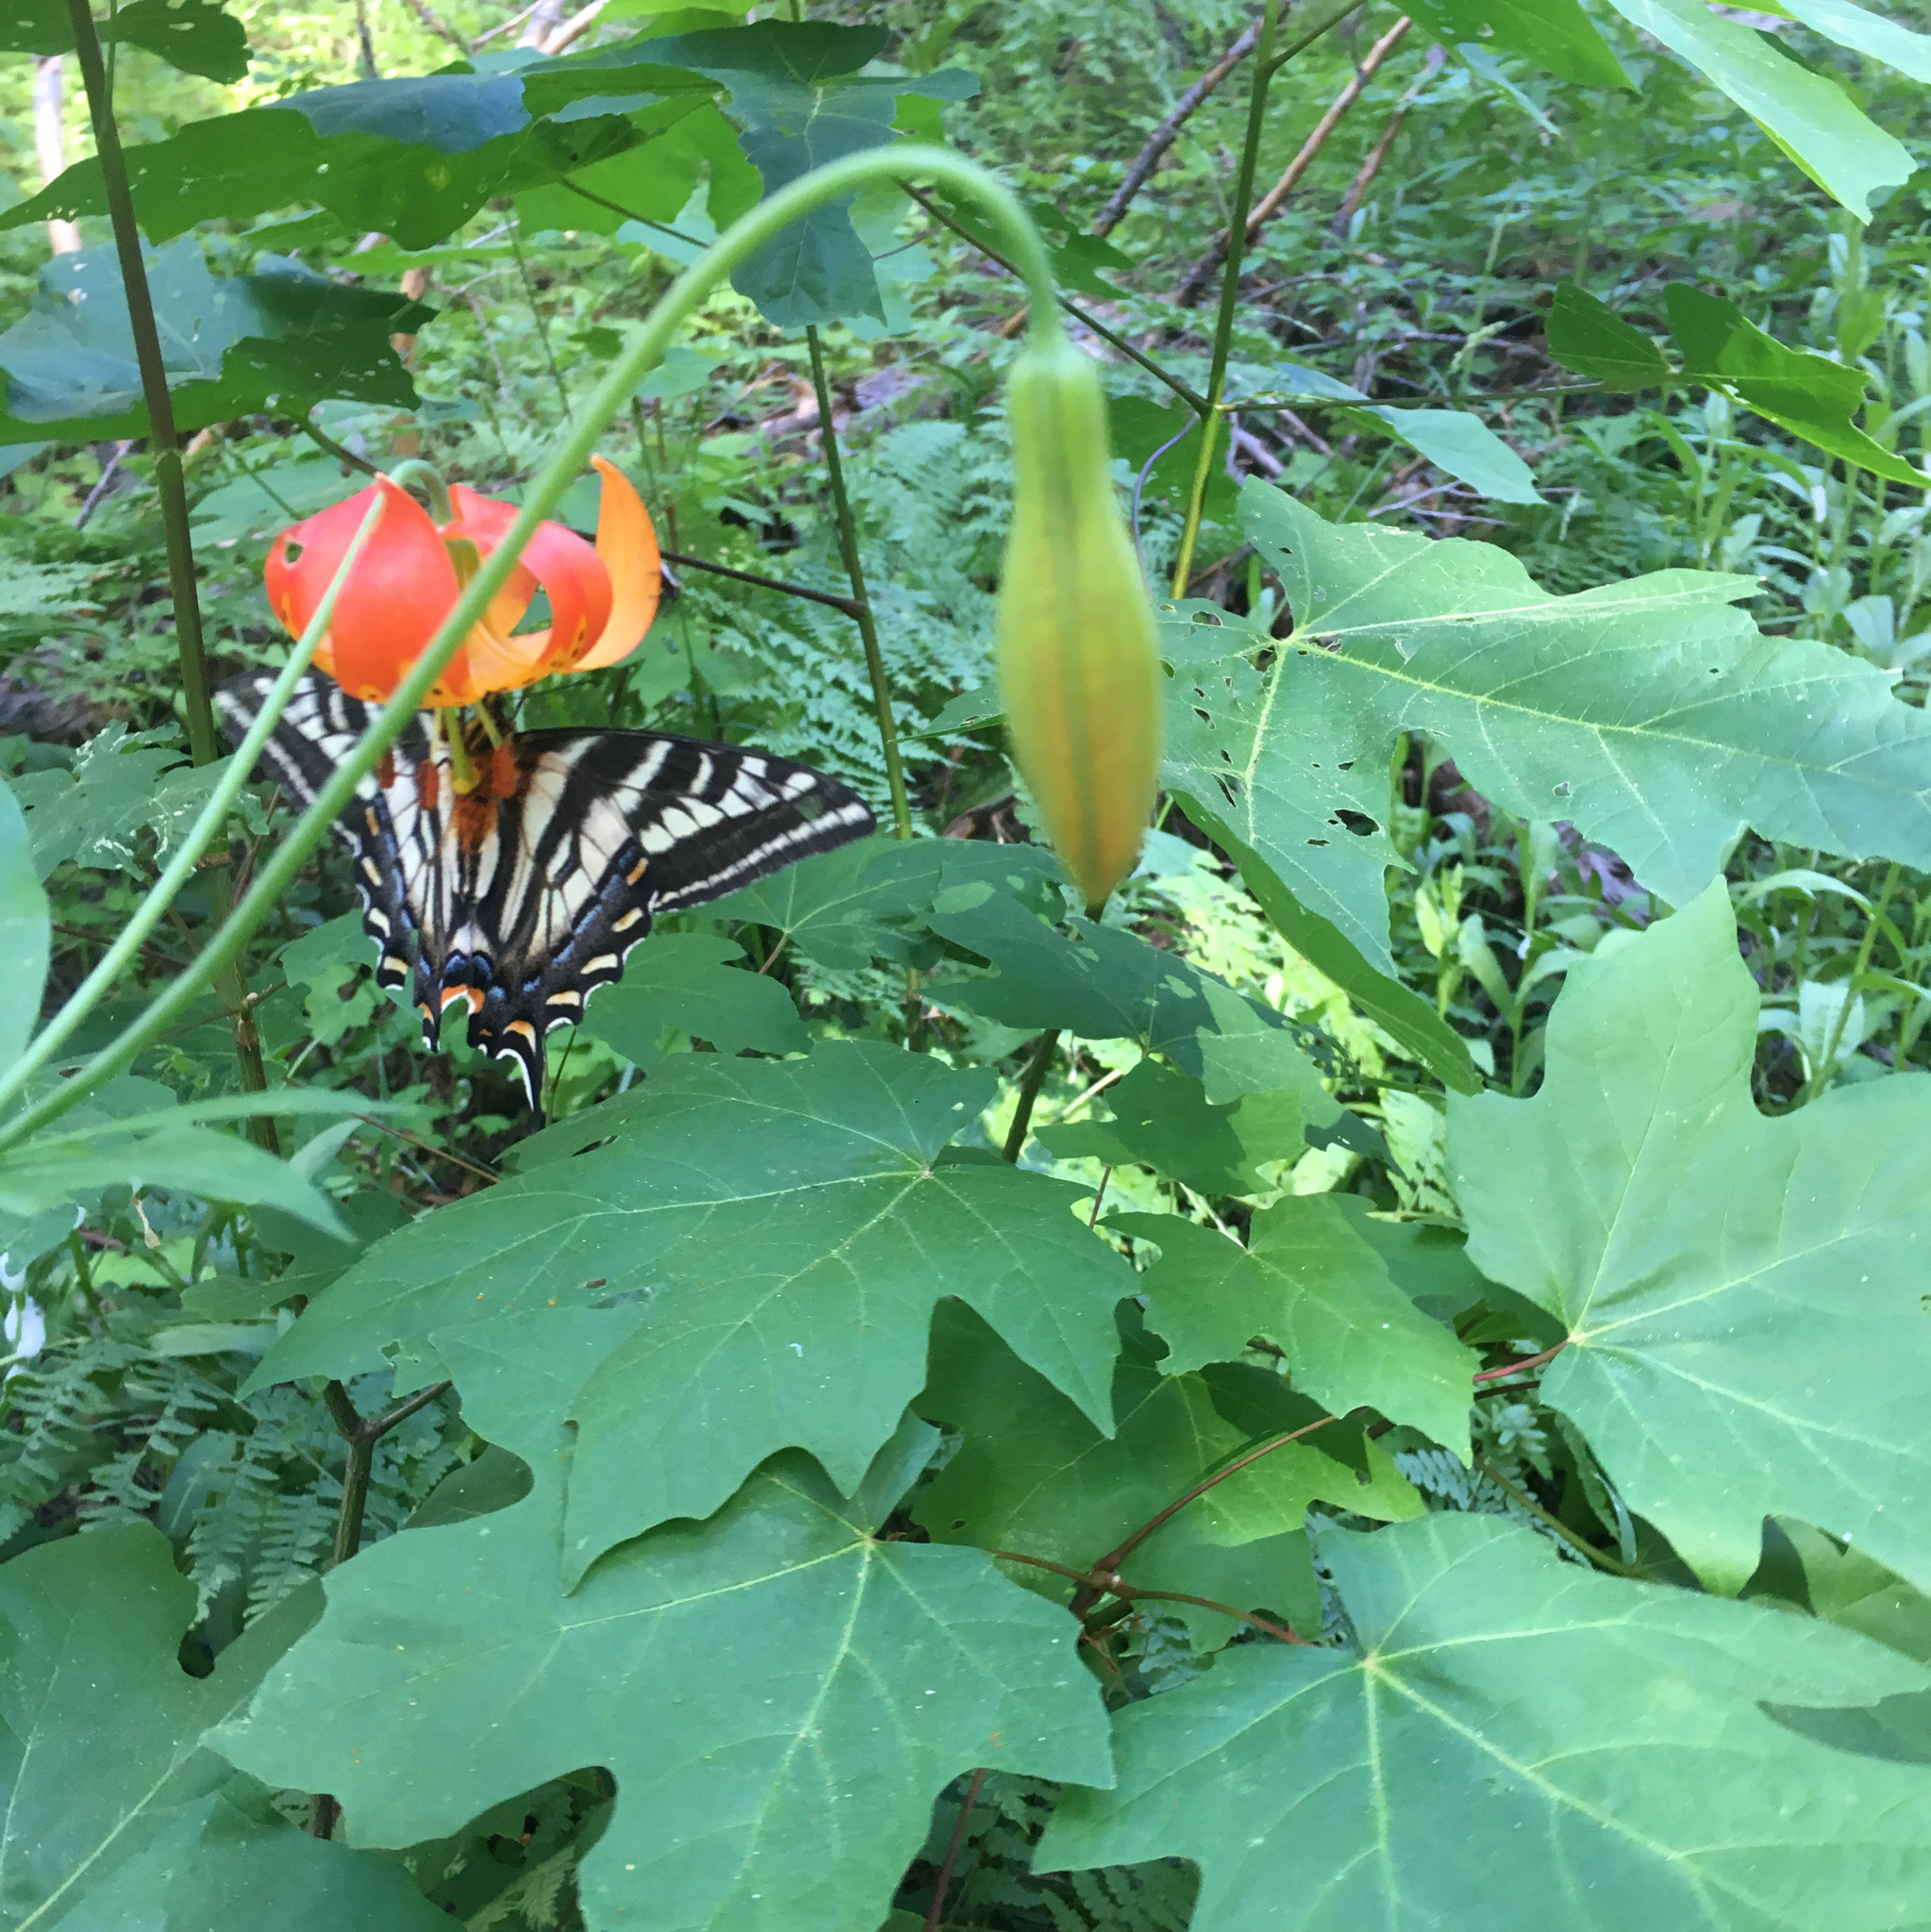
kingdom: Animalia
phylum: Arthropoda
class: Insecta
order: Lepidoptera
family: Papilionidae
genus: Papilio
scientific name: Papilio eurymedon
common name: Pale tiger swallowtail
